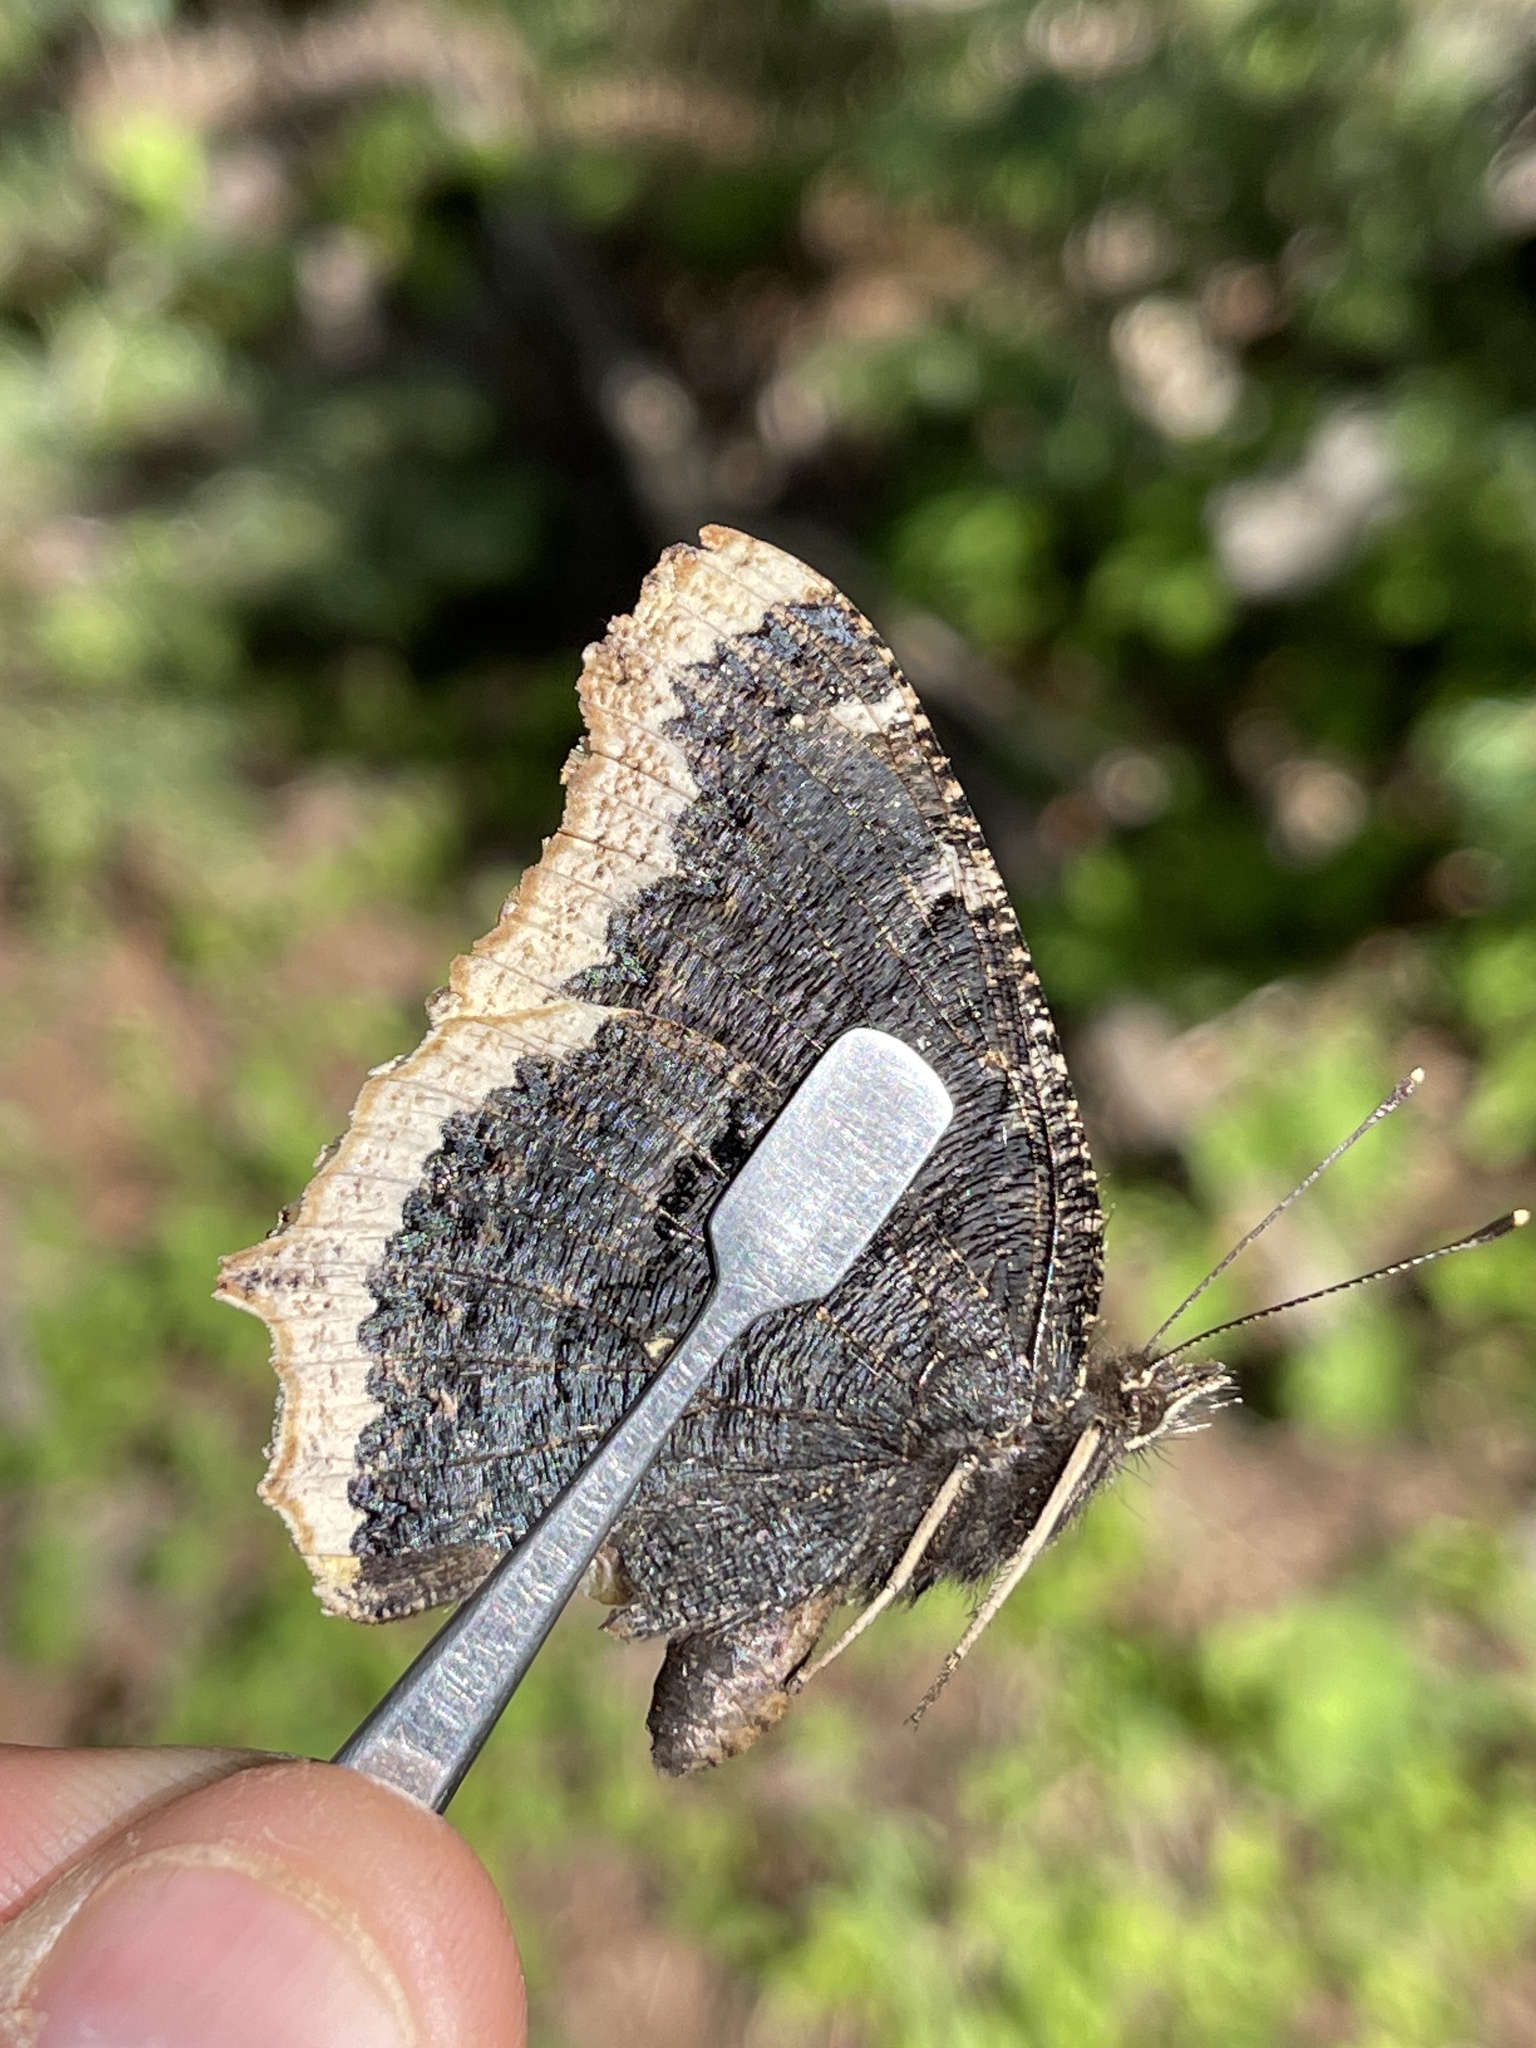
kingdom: Animalia
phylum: Arthropoda
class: Insecta
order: Lepidoptera
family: Nymphalidae
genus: Nymphalis
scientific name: Nymphalis antiopa
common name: Camberwell beauty
